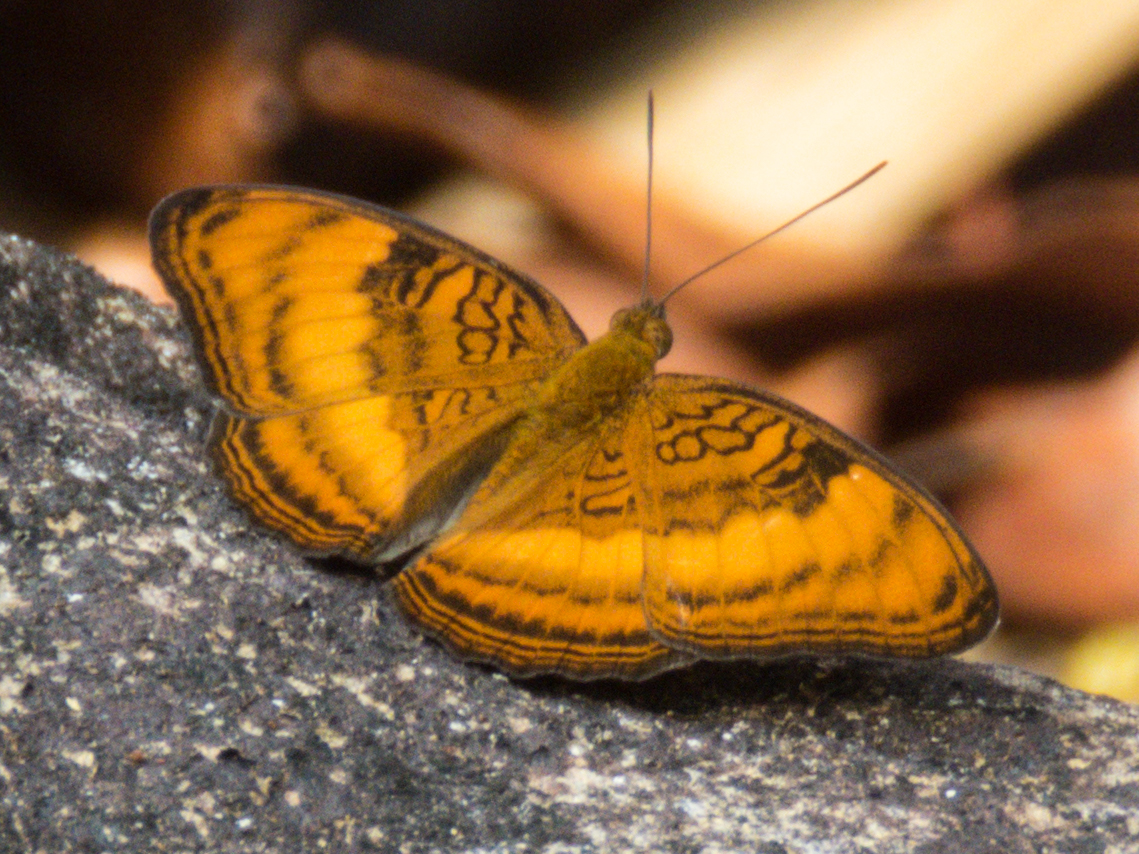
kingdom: Animalia
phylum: Arthropoda
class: Insecta
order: Lepidoptera
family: Nymphalidae
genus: Pandita
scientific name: Pandita sinope
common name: Colonel
